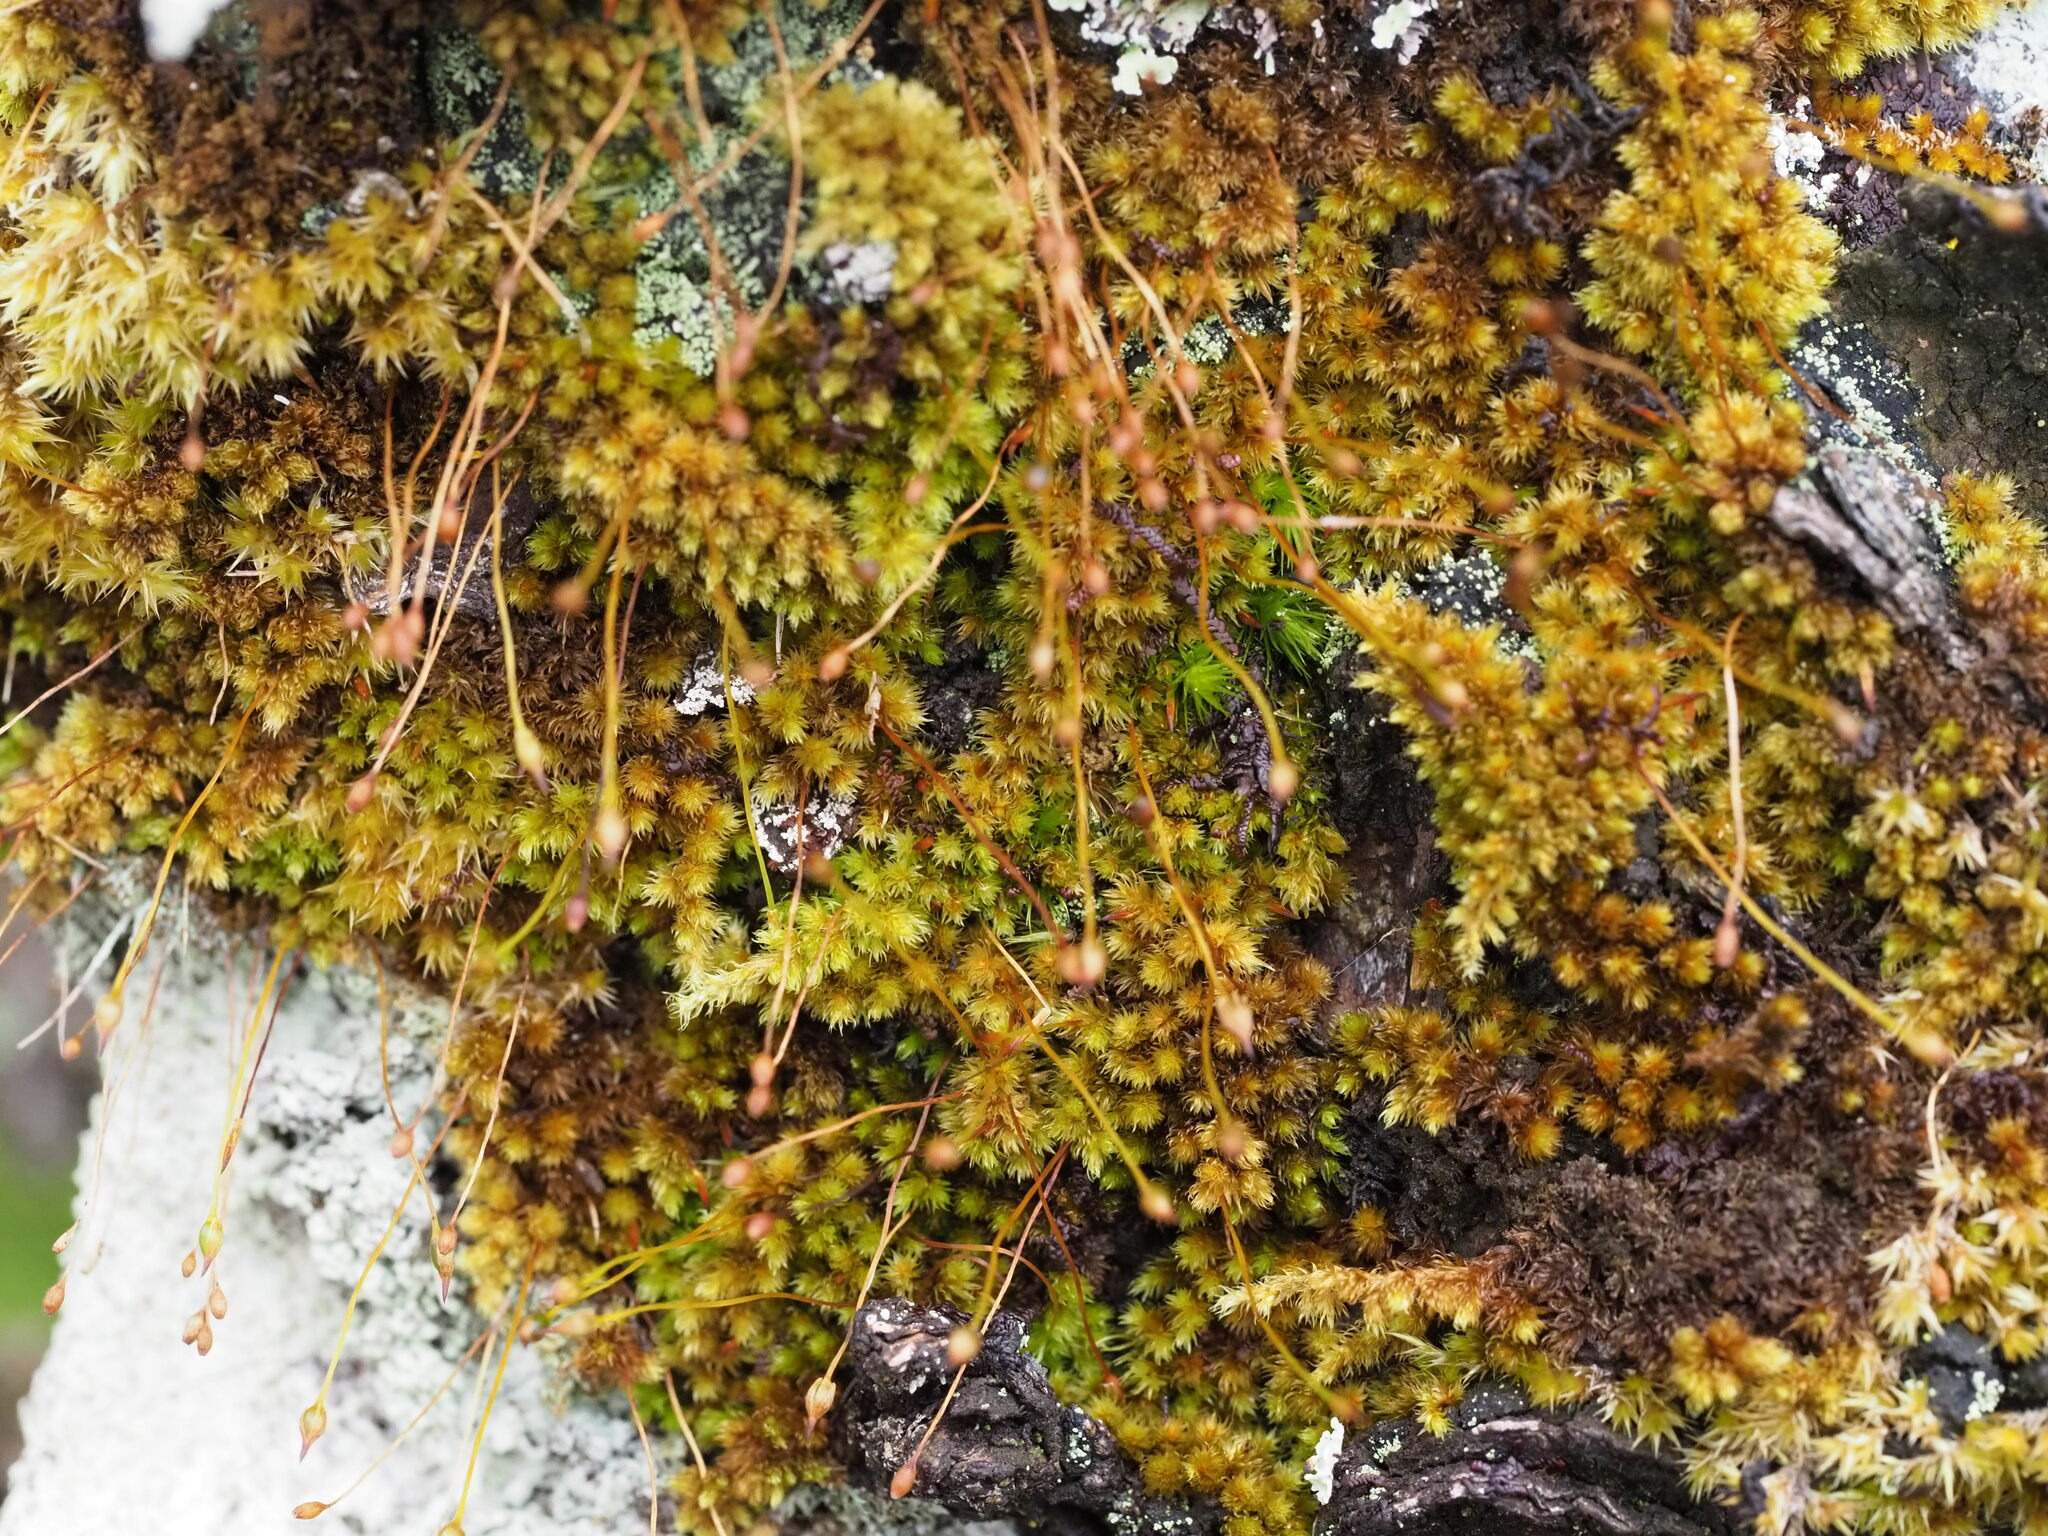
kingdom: Plantae
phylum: Bryophyta
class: Bryopsida
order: Orthotrichales
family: Orthotrichaceae
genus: Macromitrium
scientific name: Macromitrium microstomum
